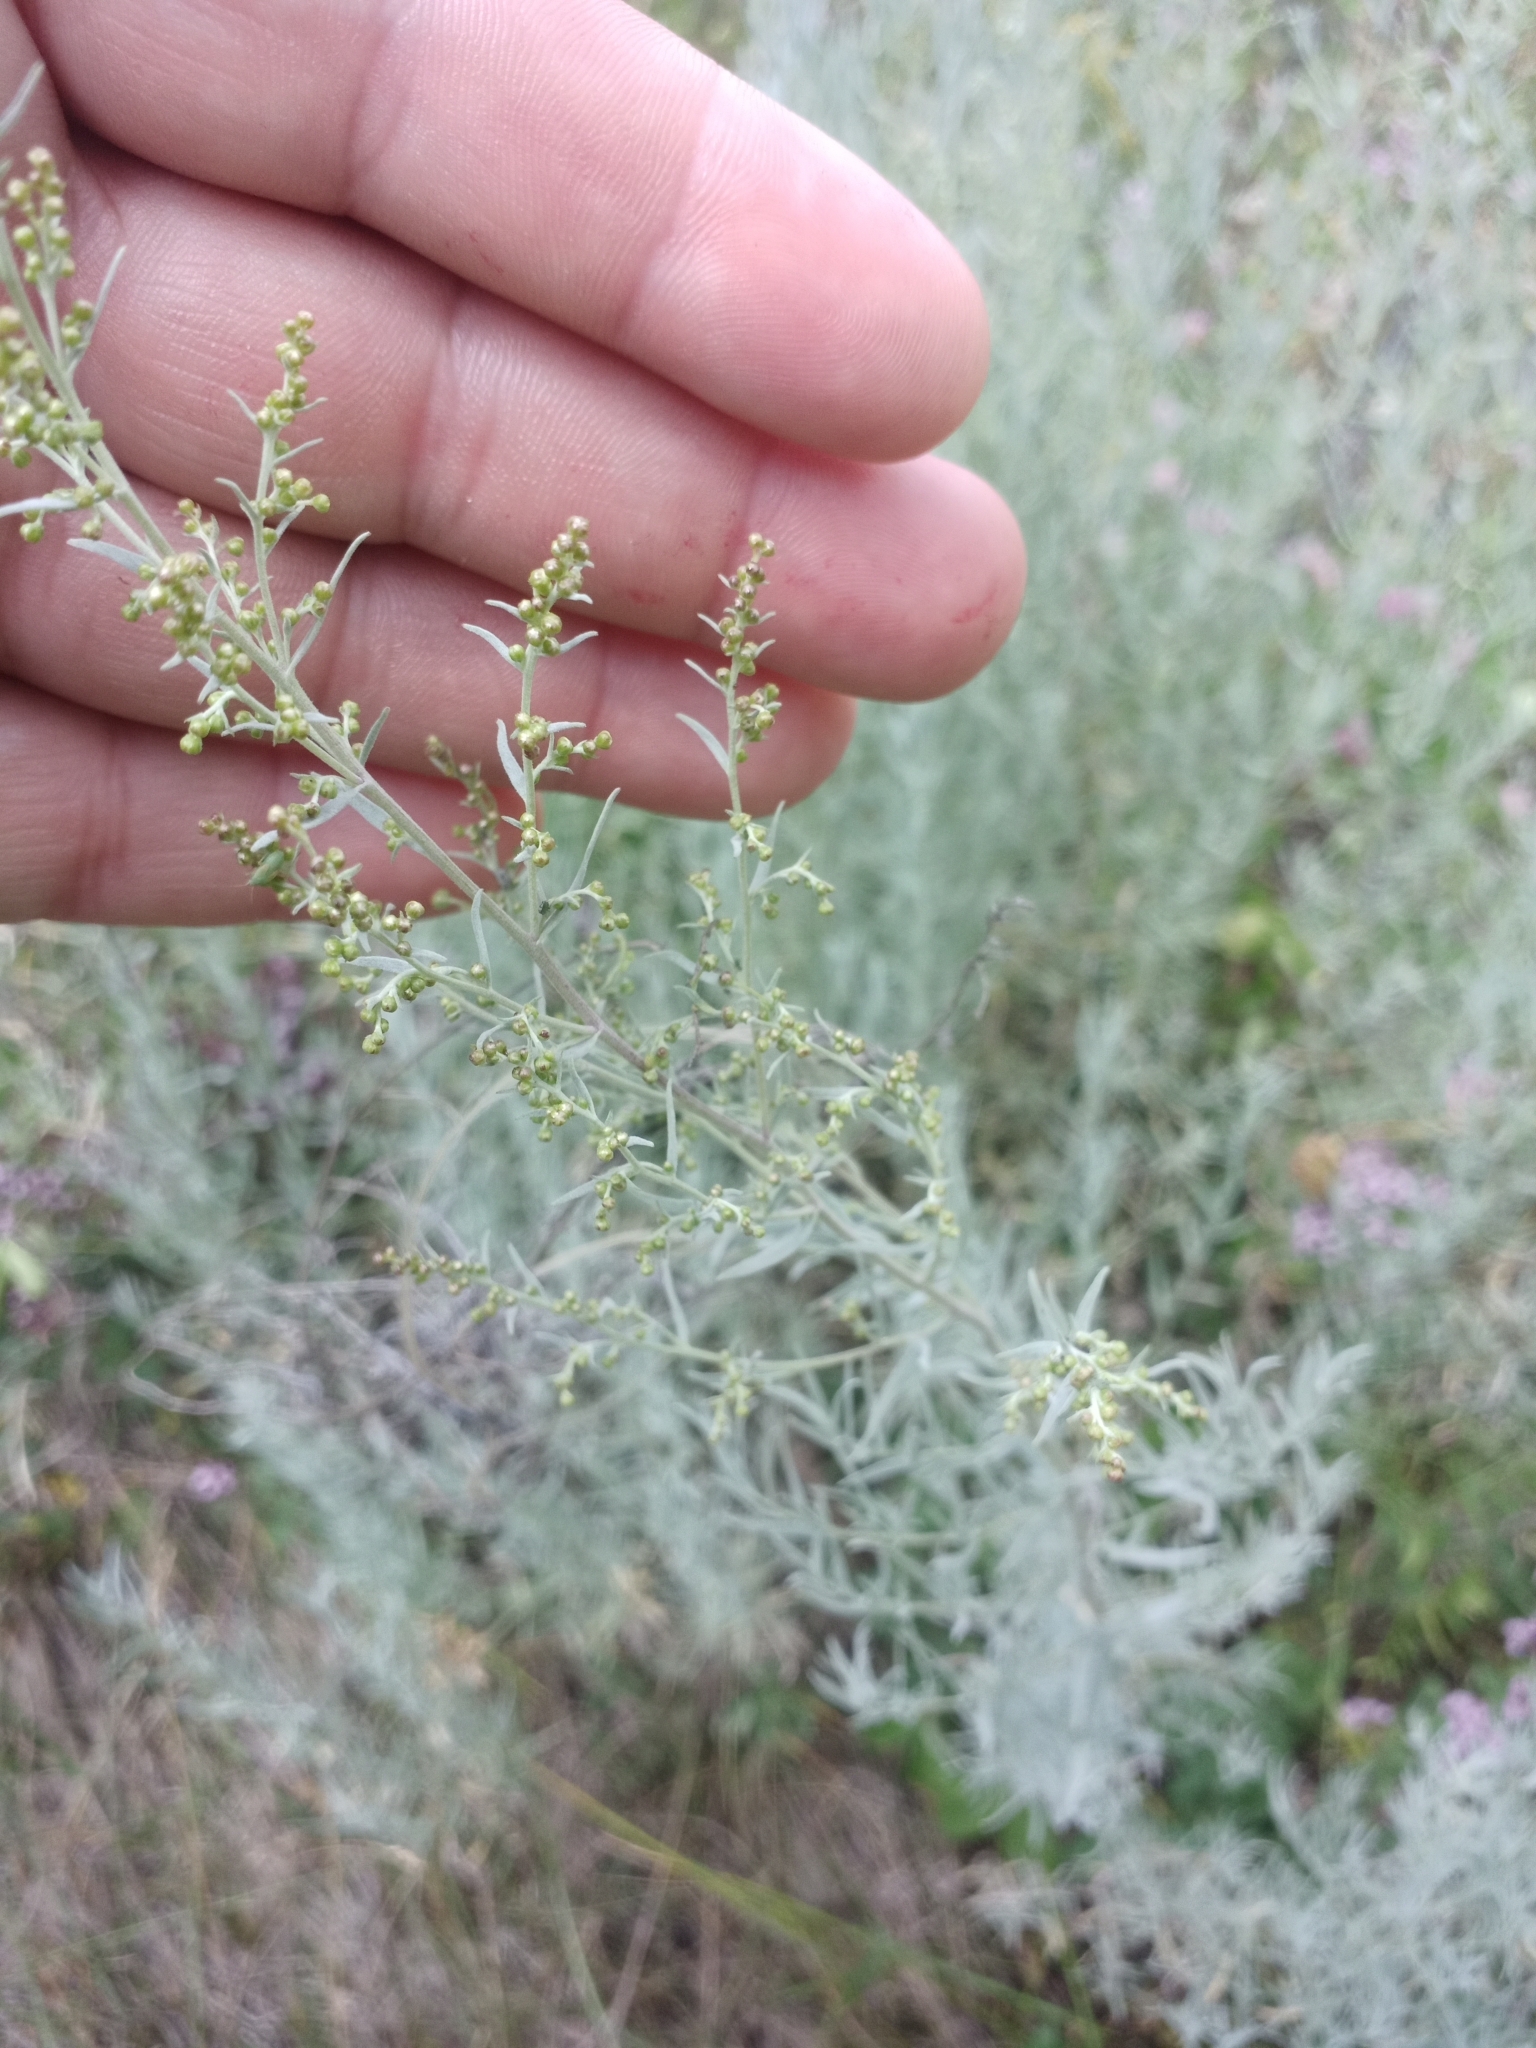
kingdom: Plantae
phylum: Tracheophyta
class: Magnoliopsida
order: Asterales
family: Asteraceae
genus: Artemisia
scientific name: Artemisia glauca
